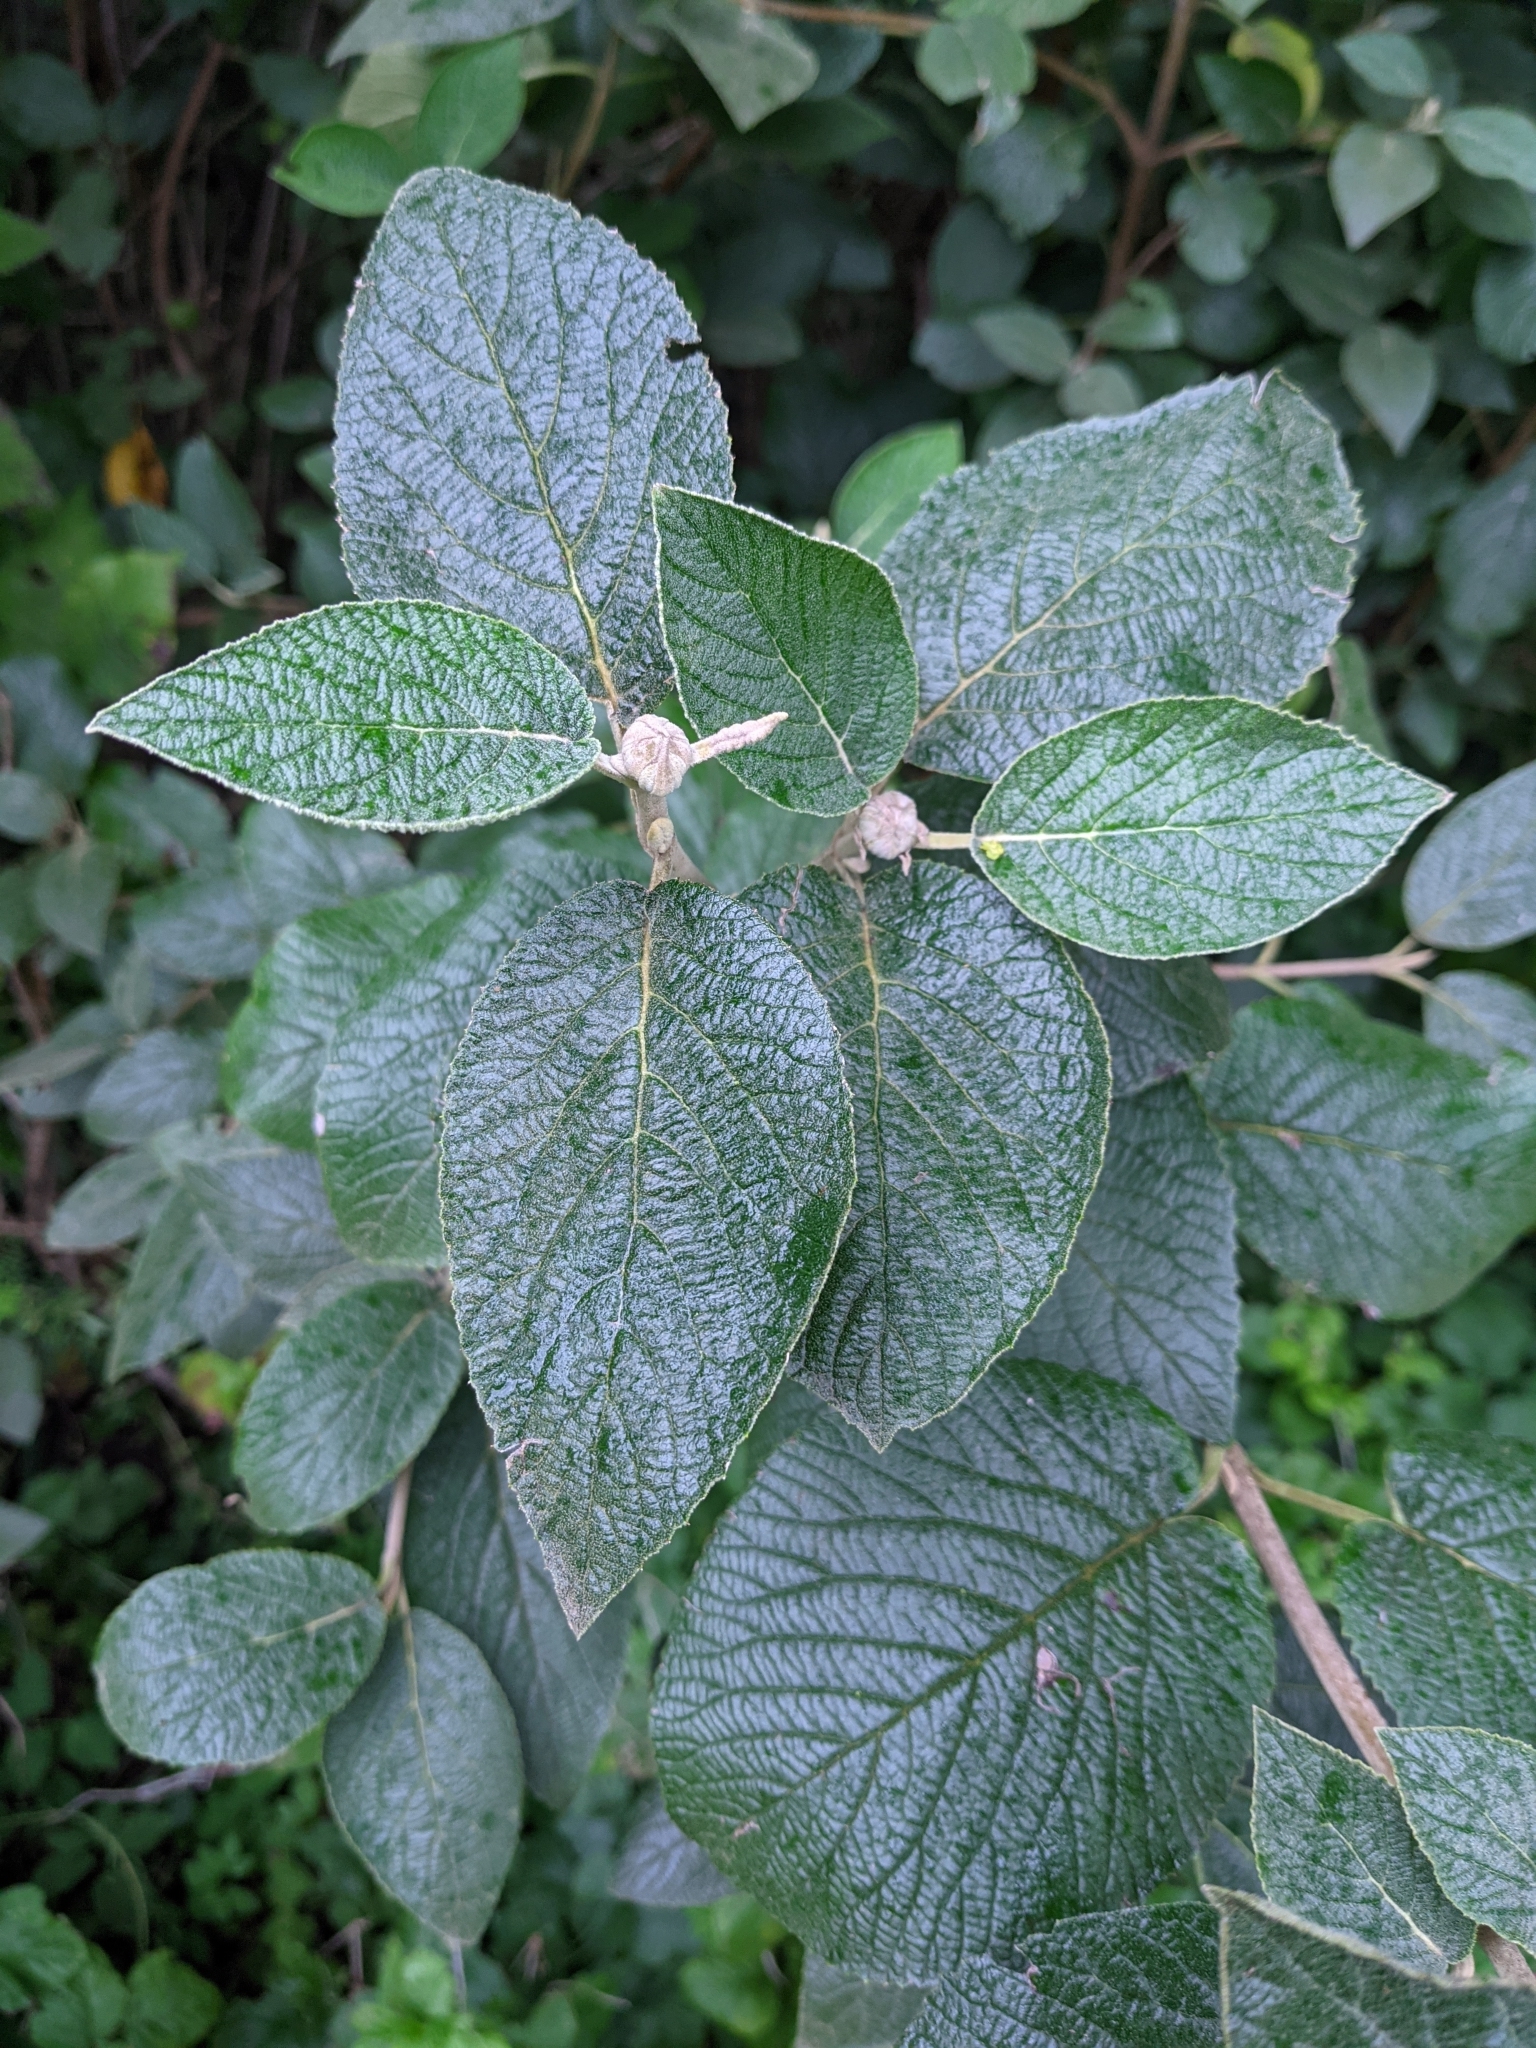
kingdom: Plantae
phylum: Tracheophyta
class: Magnoliopsida
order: Dipsacales
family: Viburnaceae
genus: Viburnum
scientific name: Viburnum lantana
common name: Wayfaring tree
